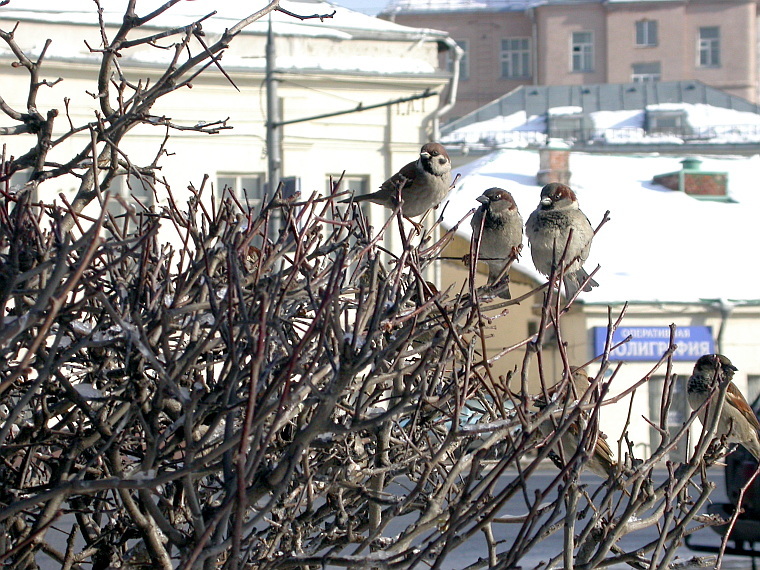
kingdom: Animalia
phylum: Chordata
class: Aves
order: Passeriformes
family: Passeridae
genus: Passer
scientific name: Passer domesticus
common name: House sparrow
